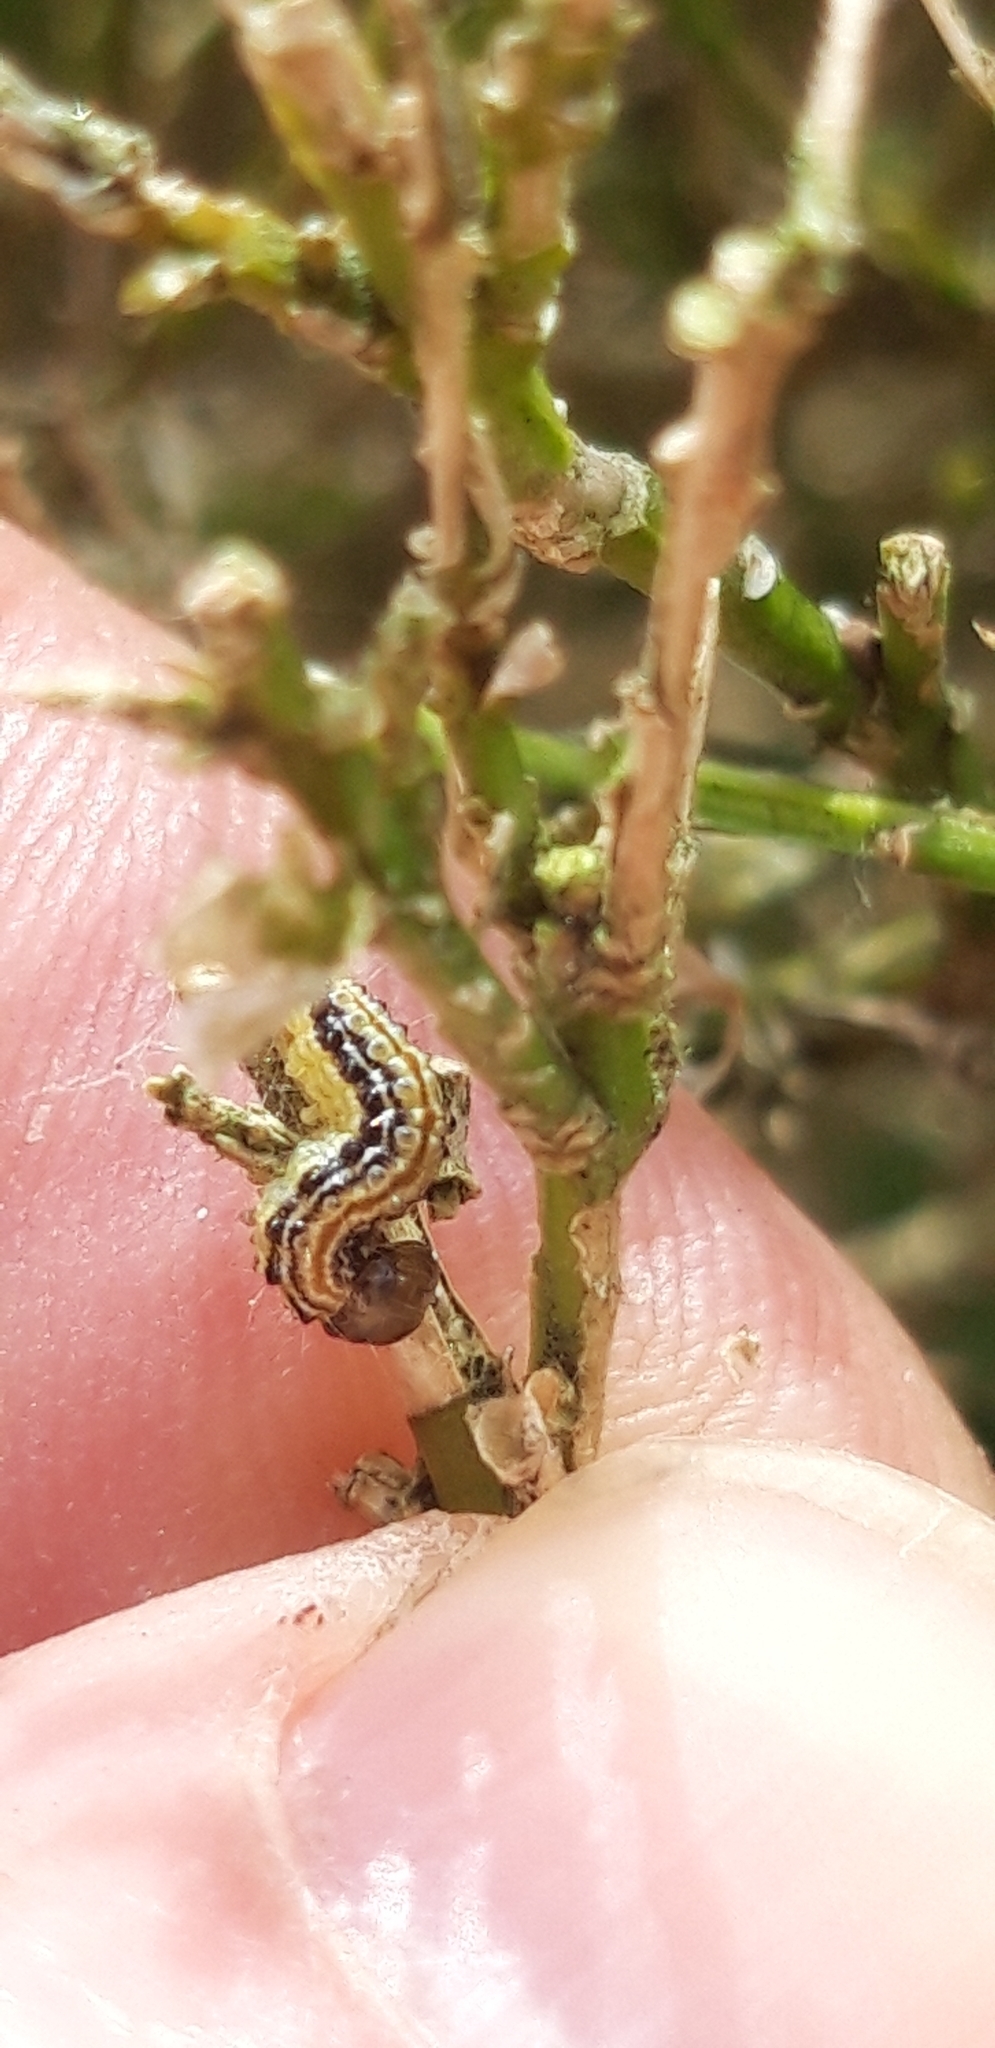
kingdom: Animalia
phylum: Arthropoda
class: Insecta
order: Lepidoptera
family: Crambidae
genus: Cydalima
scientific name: Cydalima perspectalis
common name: Box tree moth
